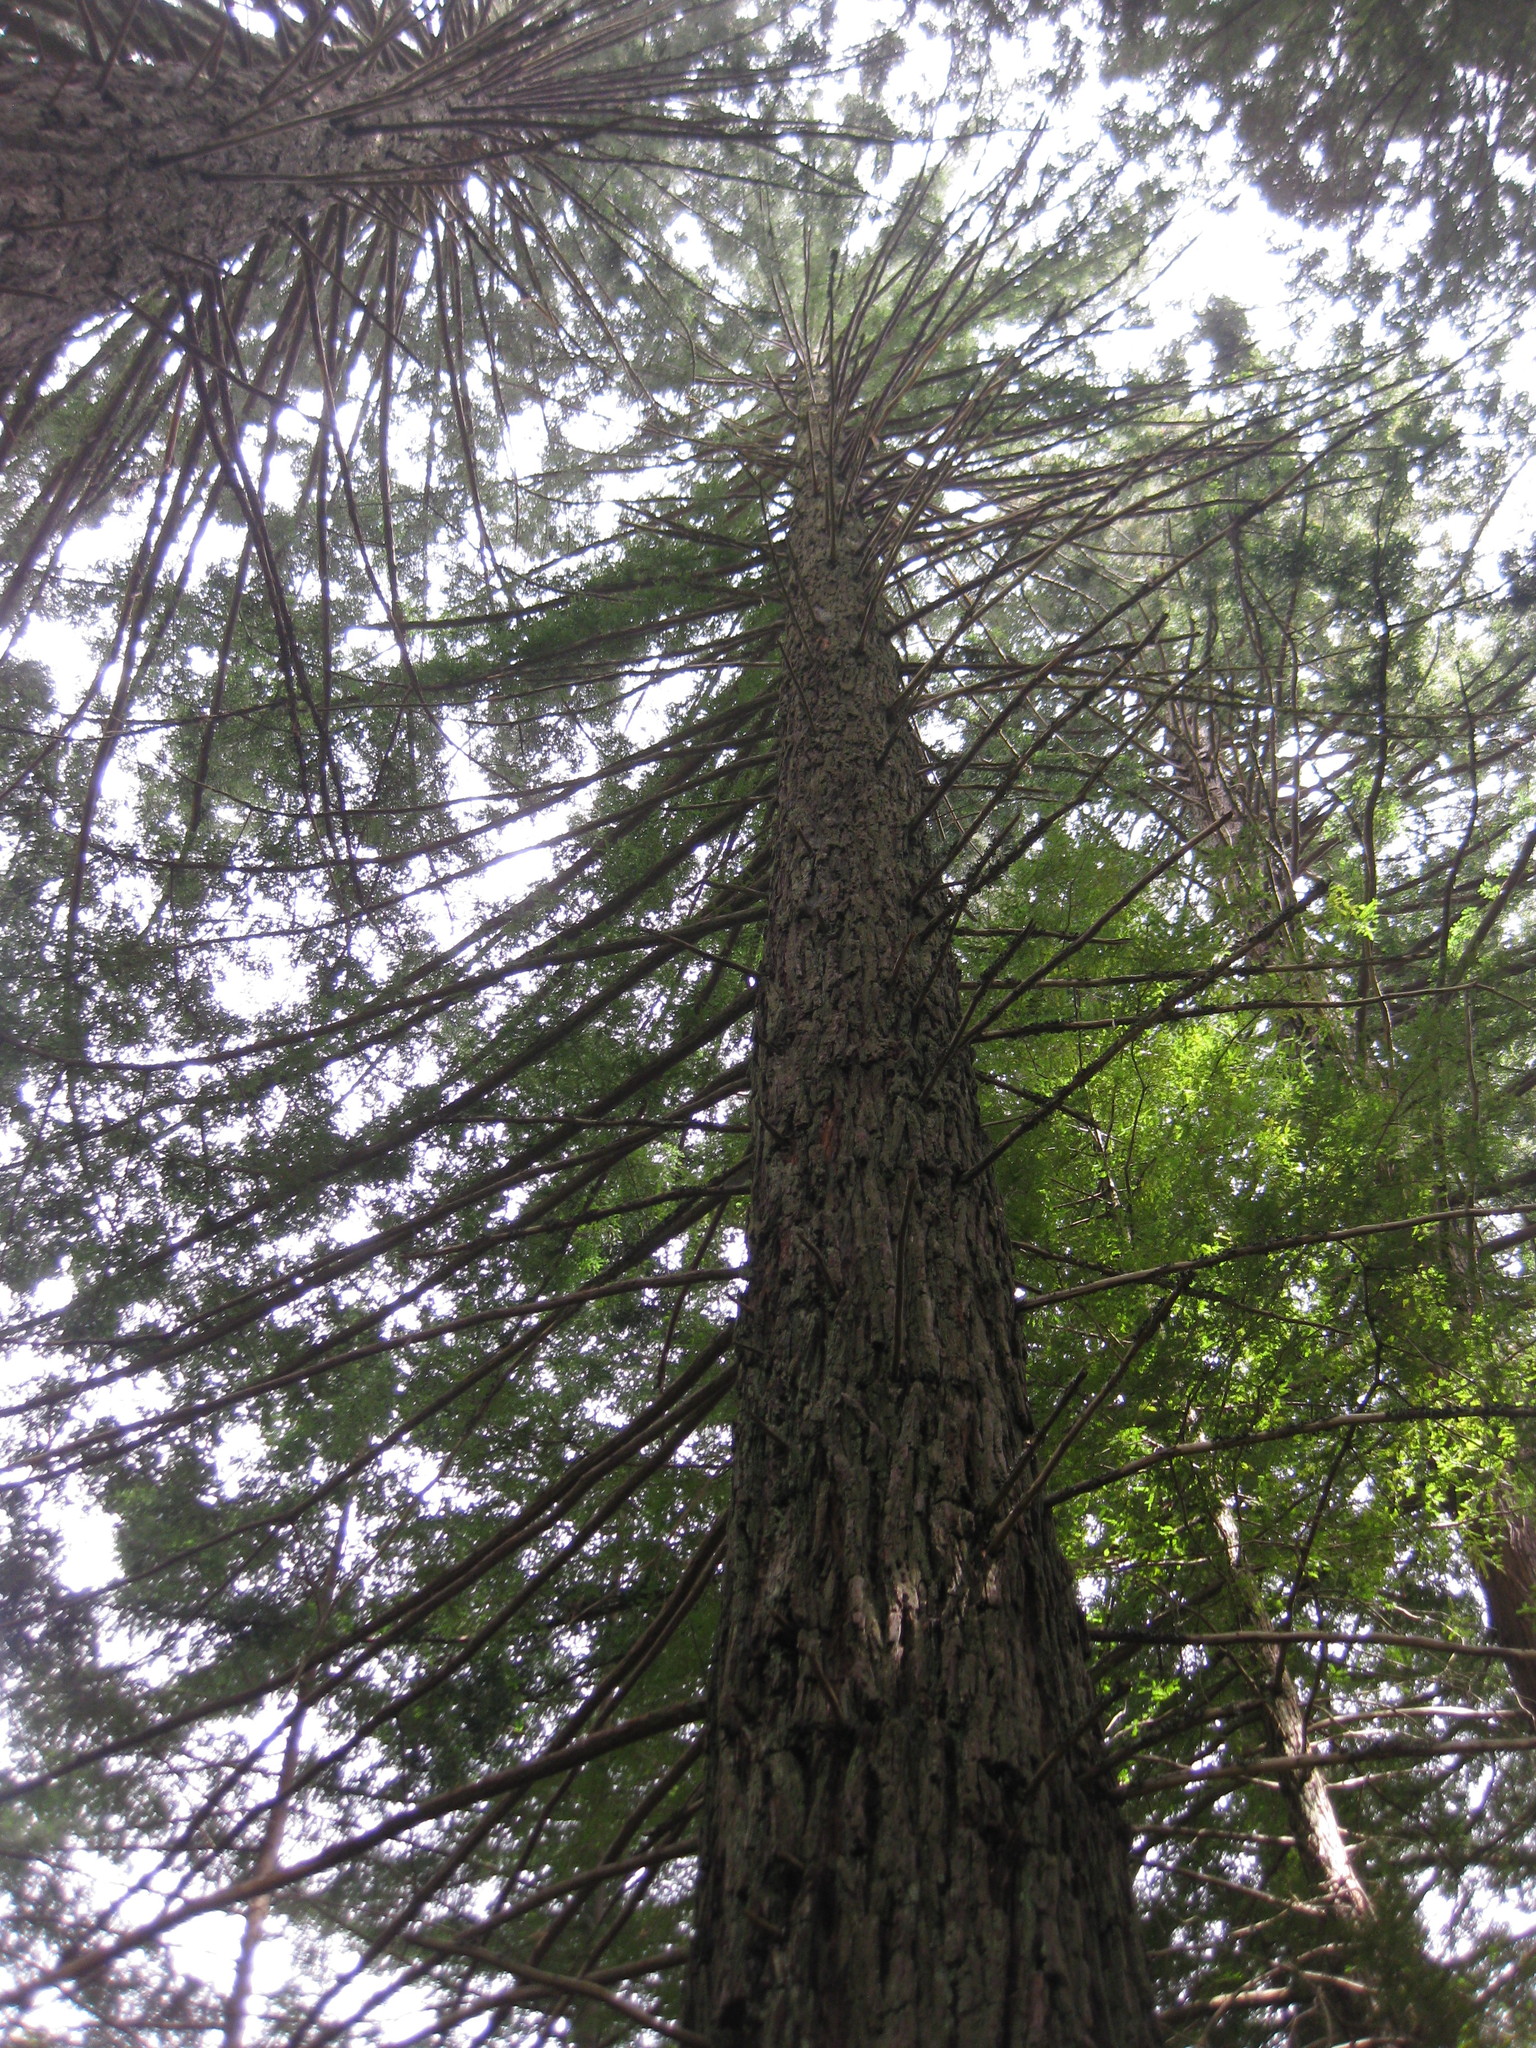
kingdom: Plantae
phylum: Tracheophyta
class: Pinopsida
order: Pinales
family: Cupressaceae
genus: Sequoia
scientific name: Sequoia sempervirens
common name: Coast redwood
